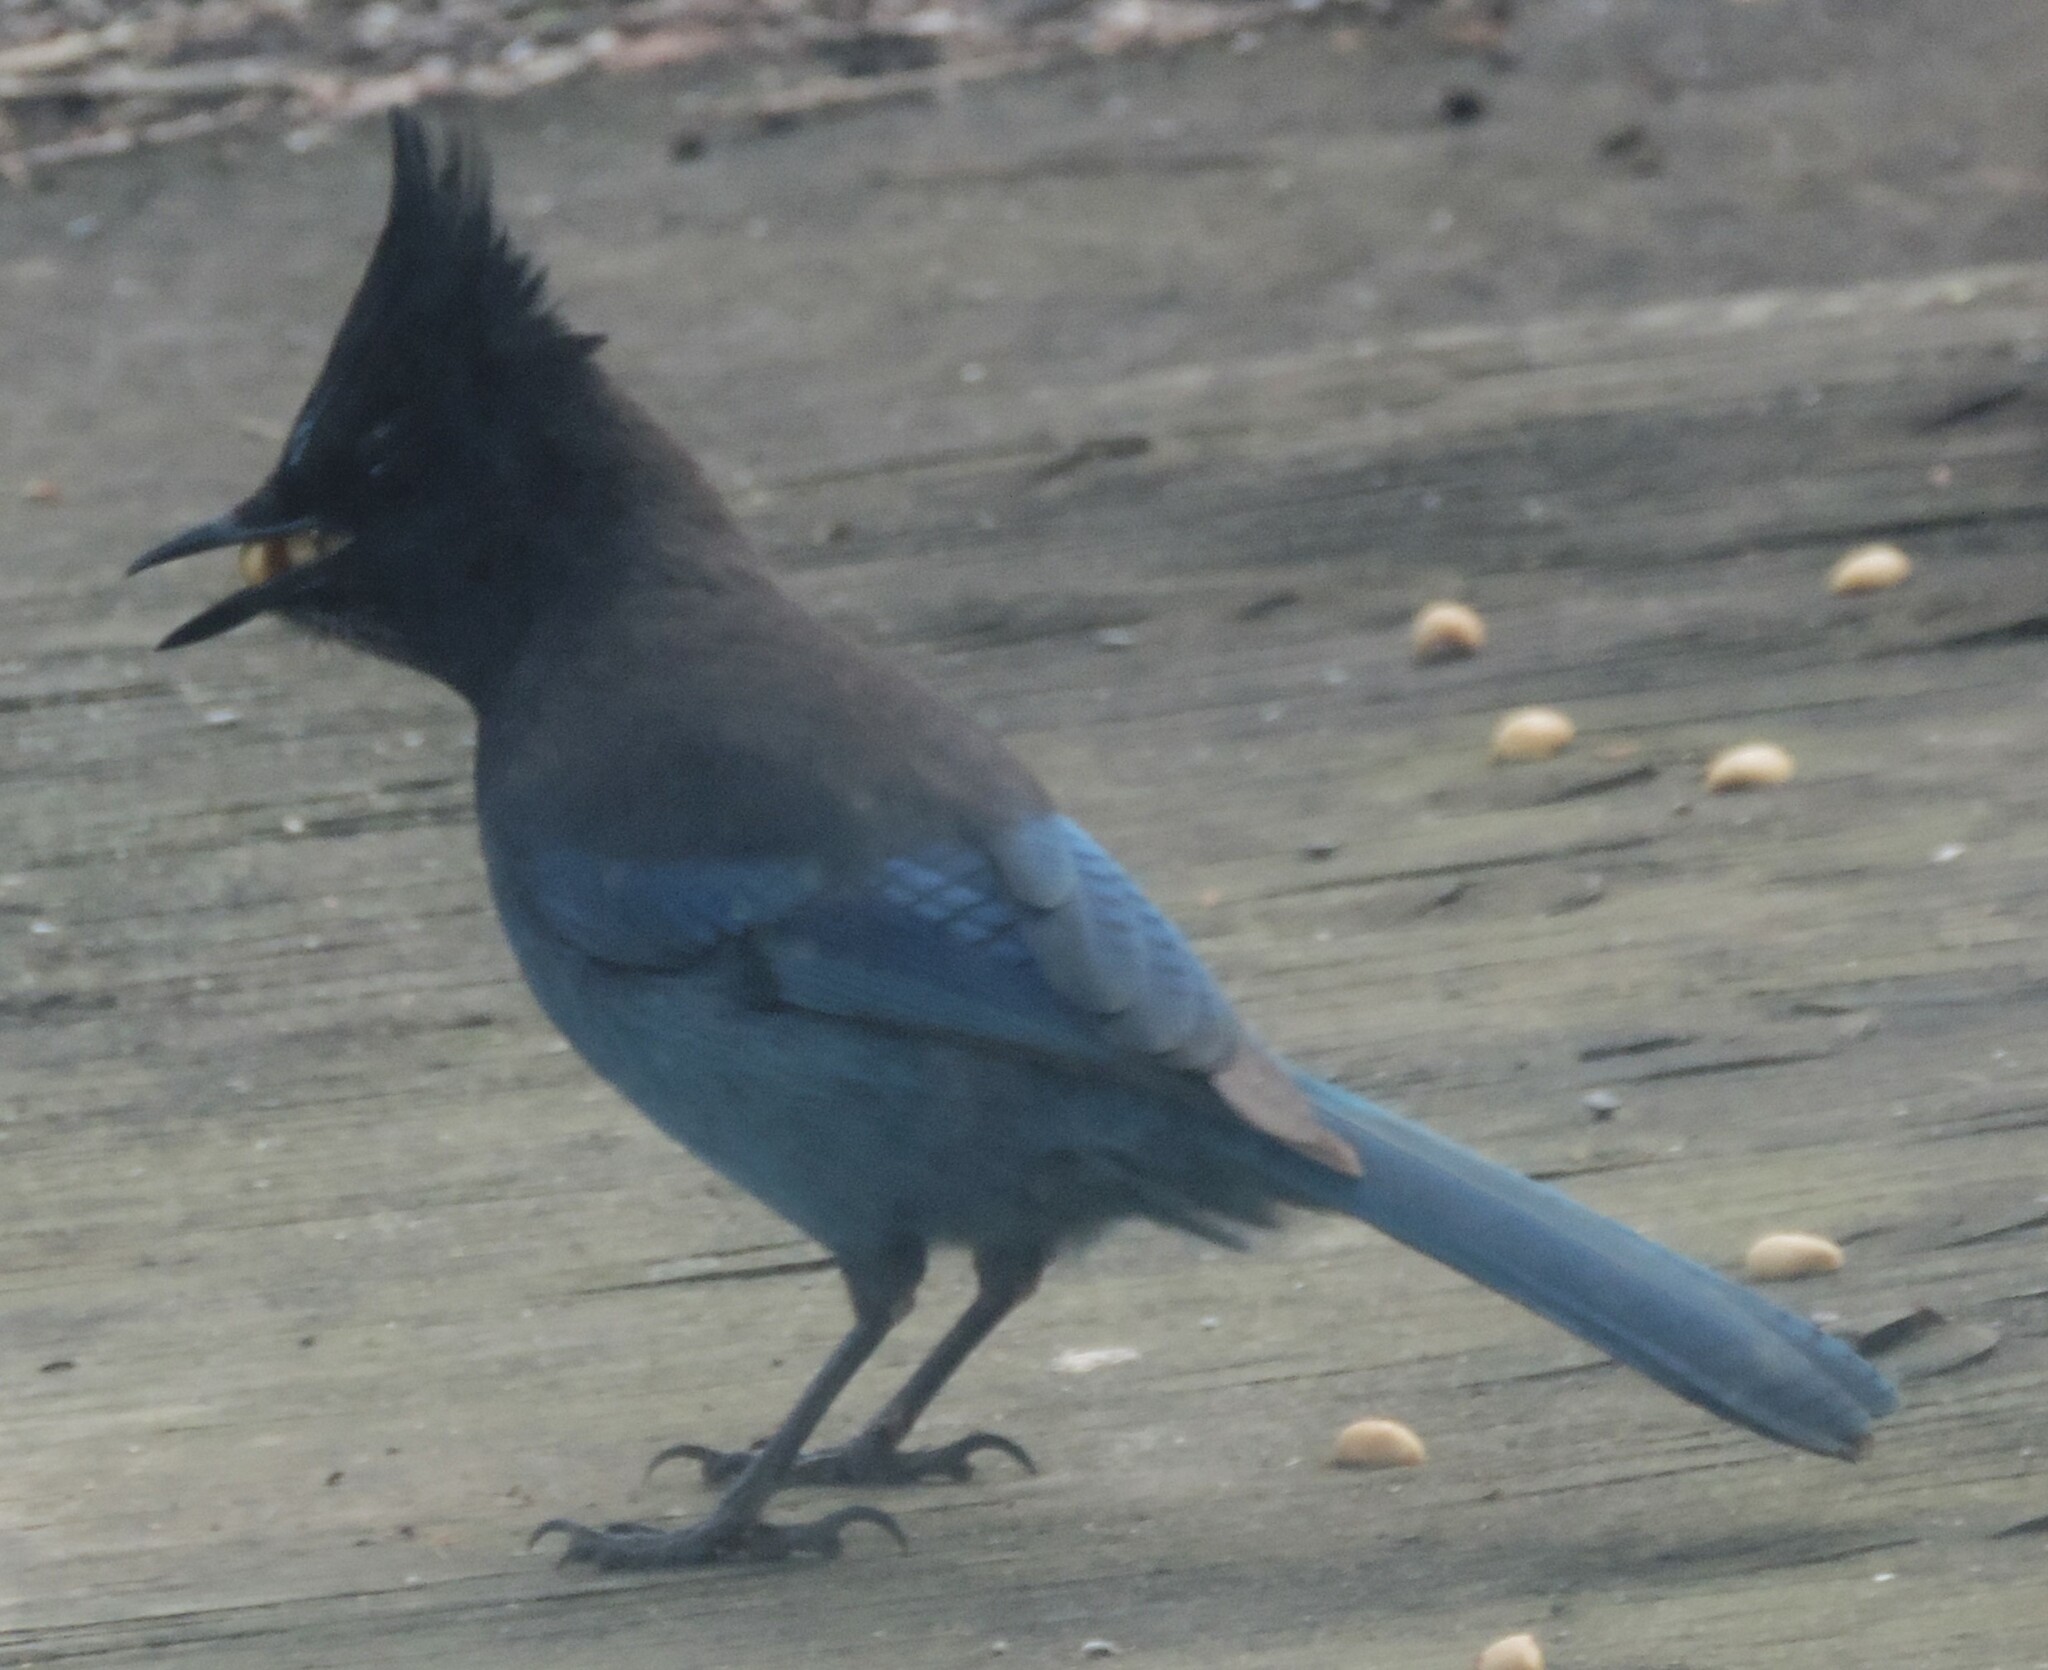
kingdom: Animalia
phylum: Chordata
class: Aves
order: Passeriformes
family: Corvidae
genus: Cyanocitta
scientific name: Cyanocitta stelleri
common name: Steller's jay
